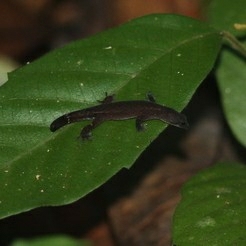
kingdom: Animalia
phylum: Chordata
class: Squamata
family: Sphaerodactylidae
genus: Chatogekko
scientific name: Chatogekko amazonicus
